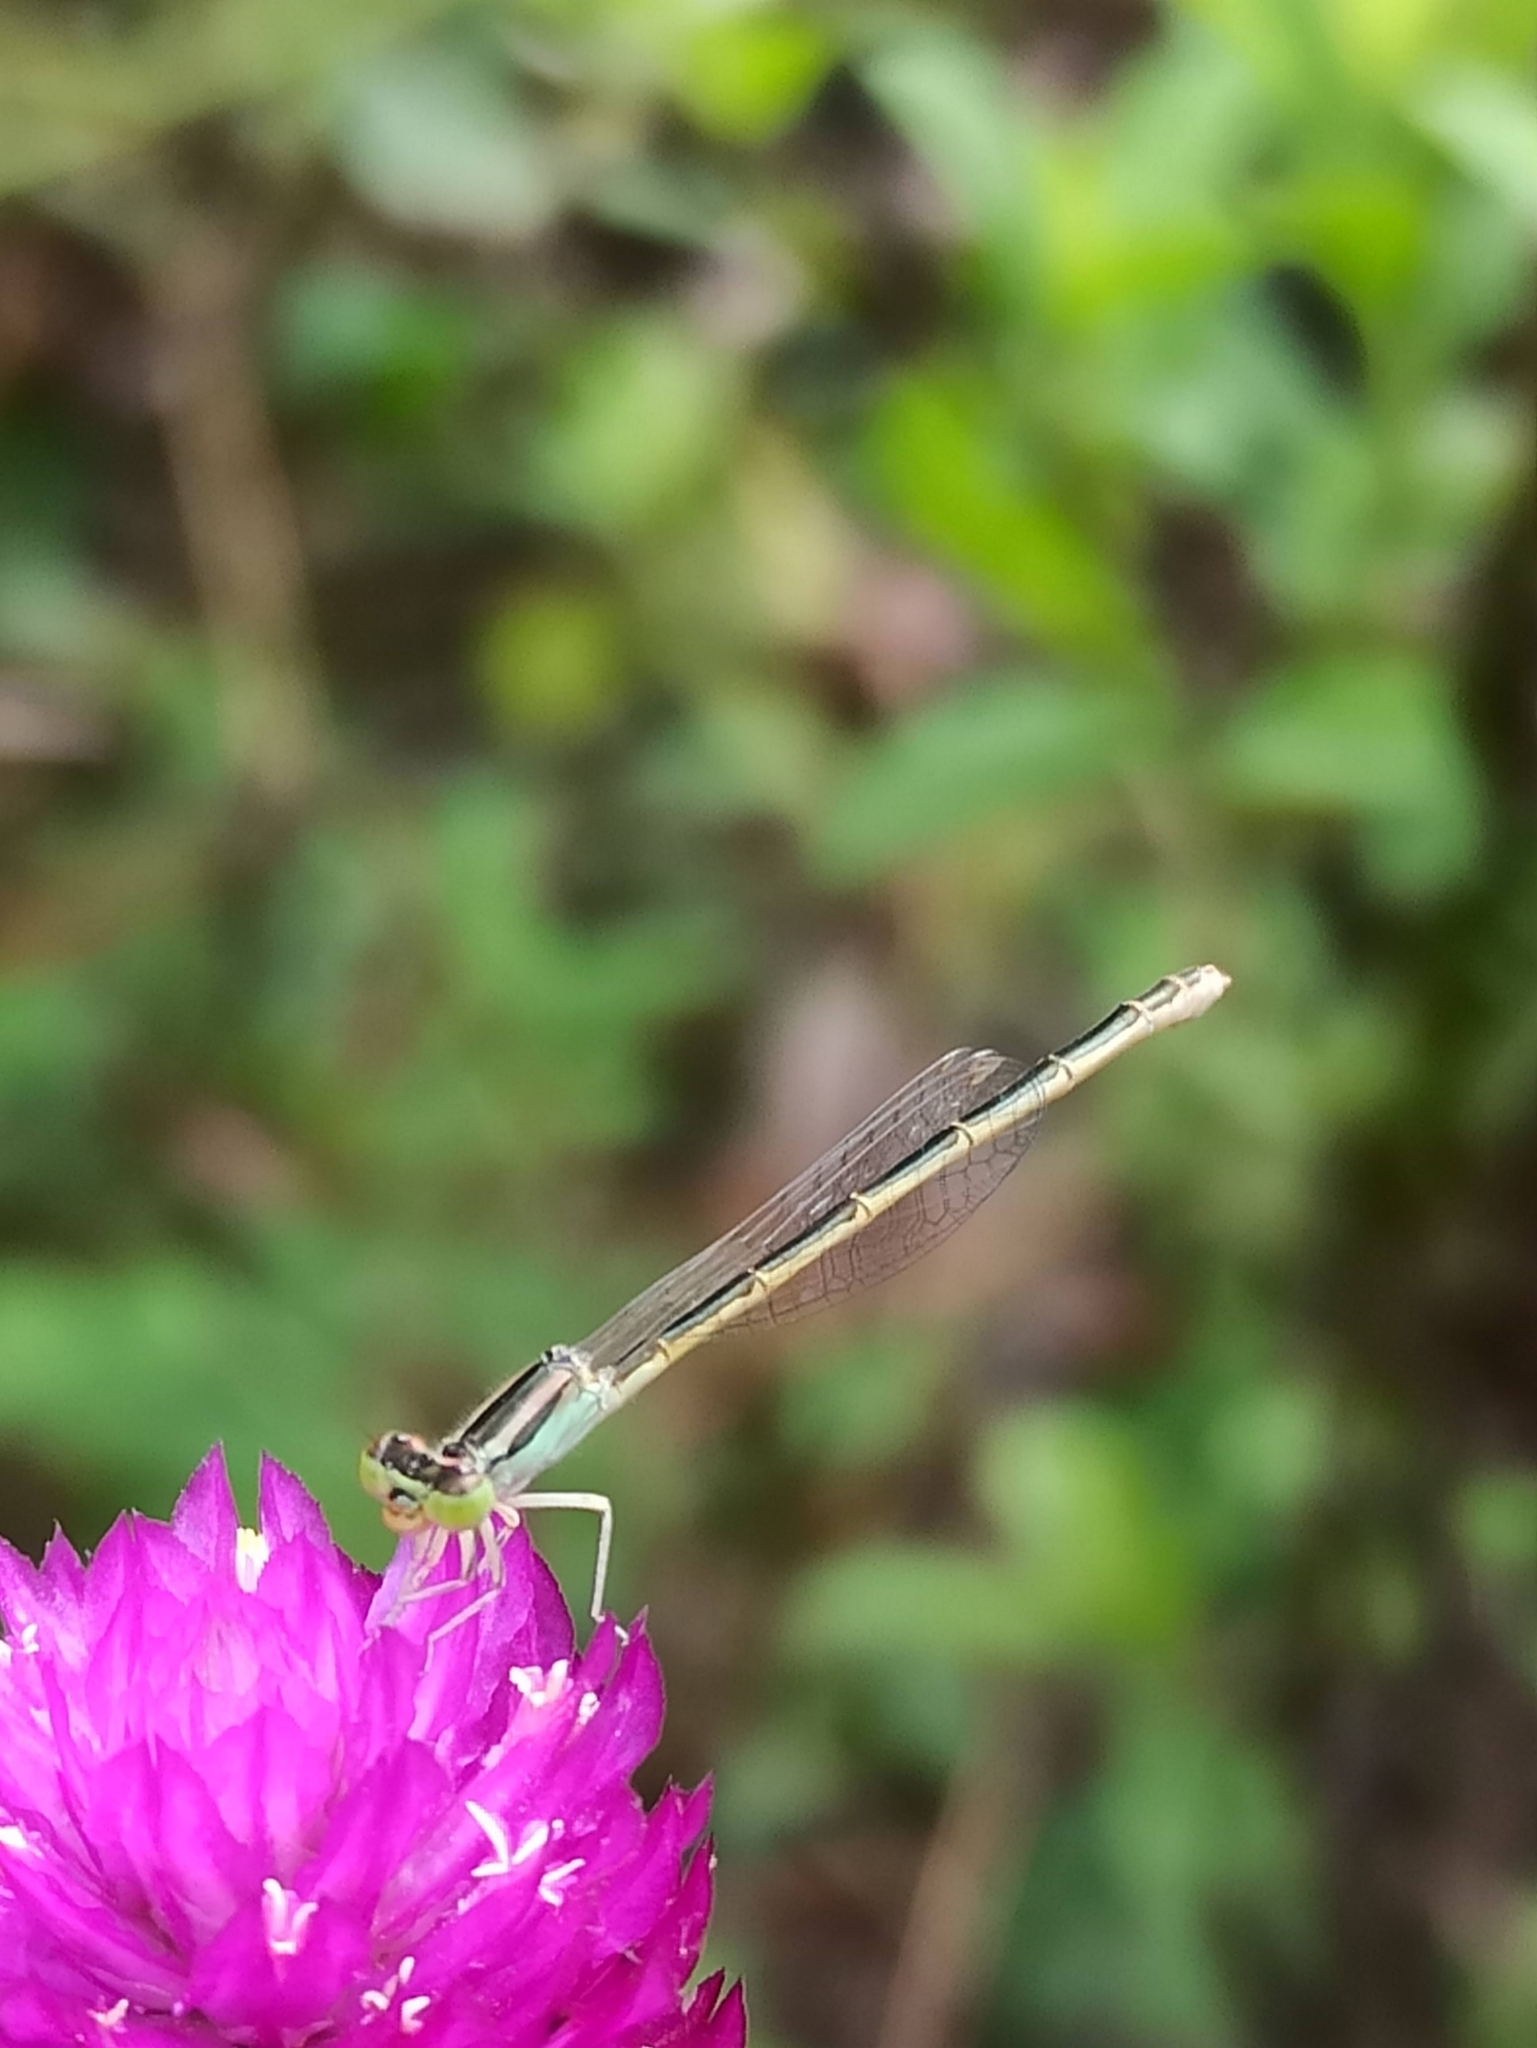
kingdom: Animalia
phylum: Arthropoda
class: Insecta
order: Odonata
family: Coenagrionidae
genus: Ischnura
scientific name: Ischnura rubilio
